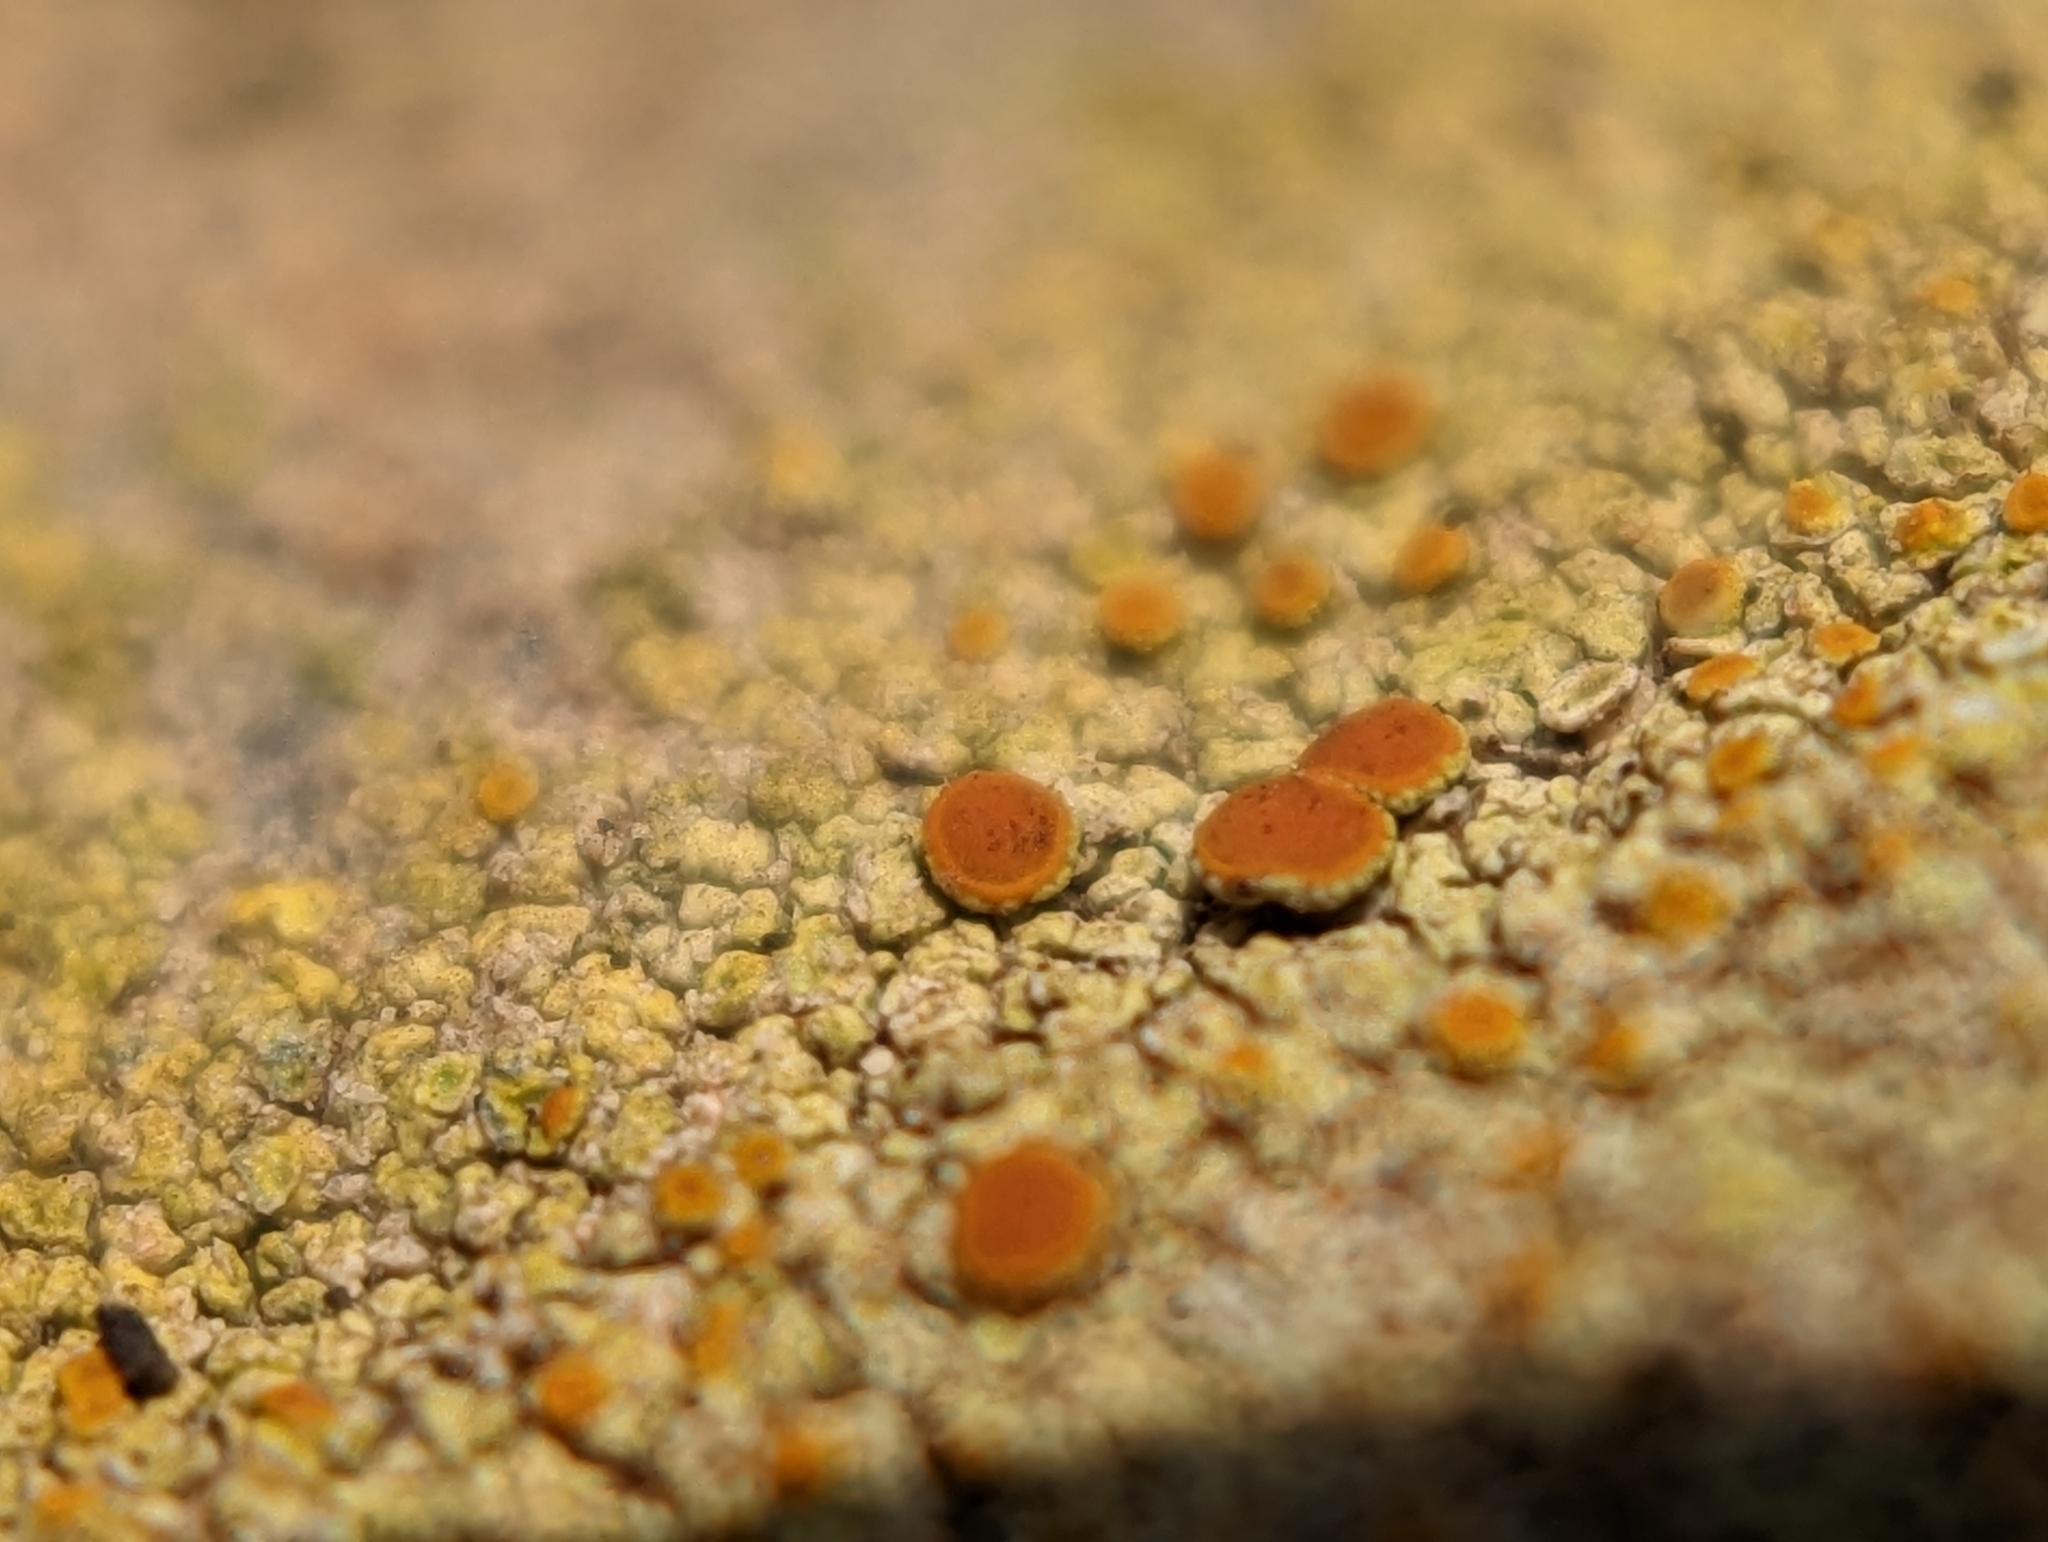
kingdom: Fungi
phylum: Ascomycota
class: Lecanoromycetes
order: Teloschistales
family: Teloschistaceae
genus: Gyalolechia
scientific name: Gyalolechia flavovirescens
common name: Sulphur firedot
